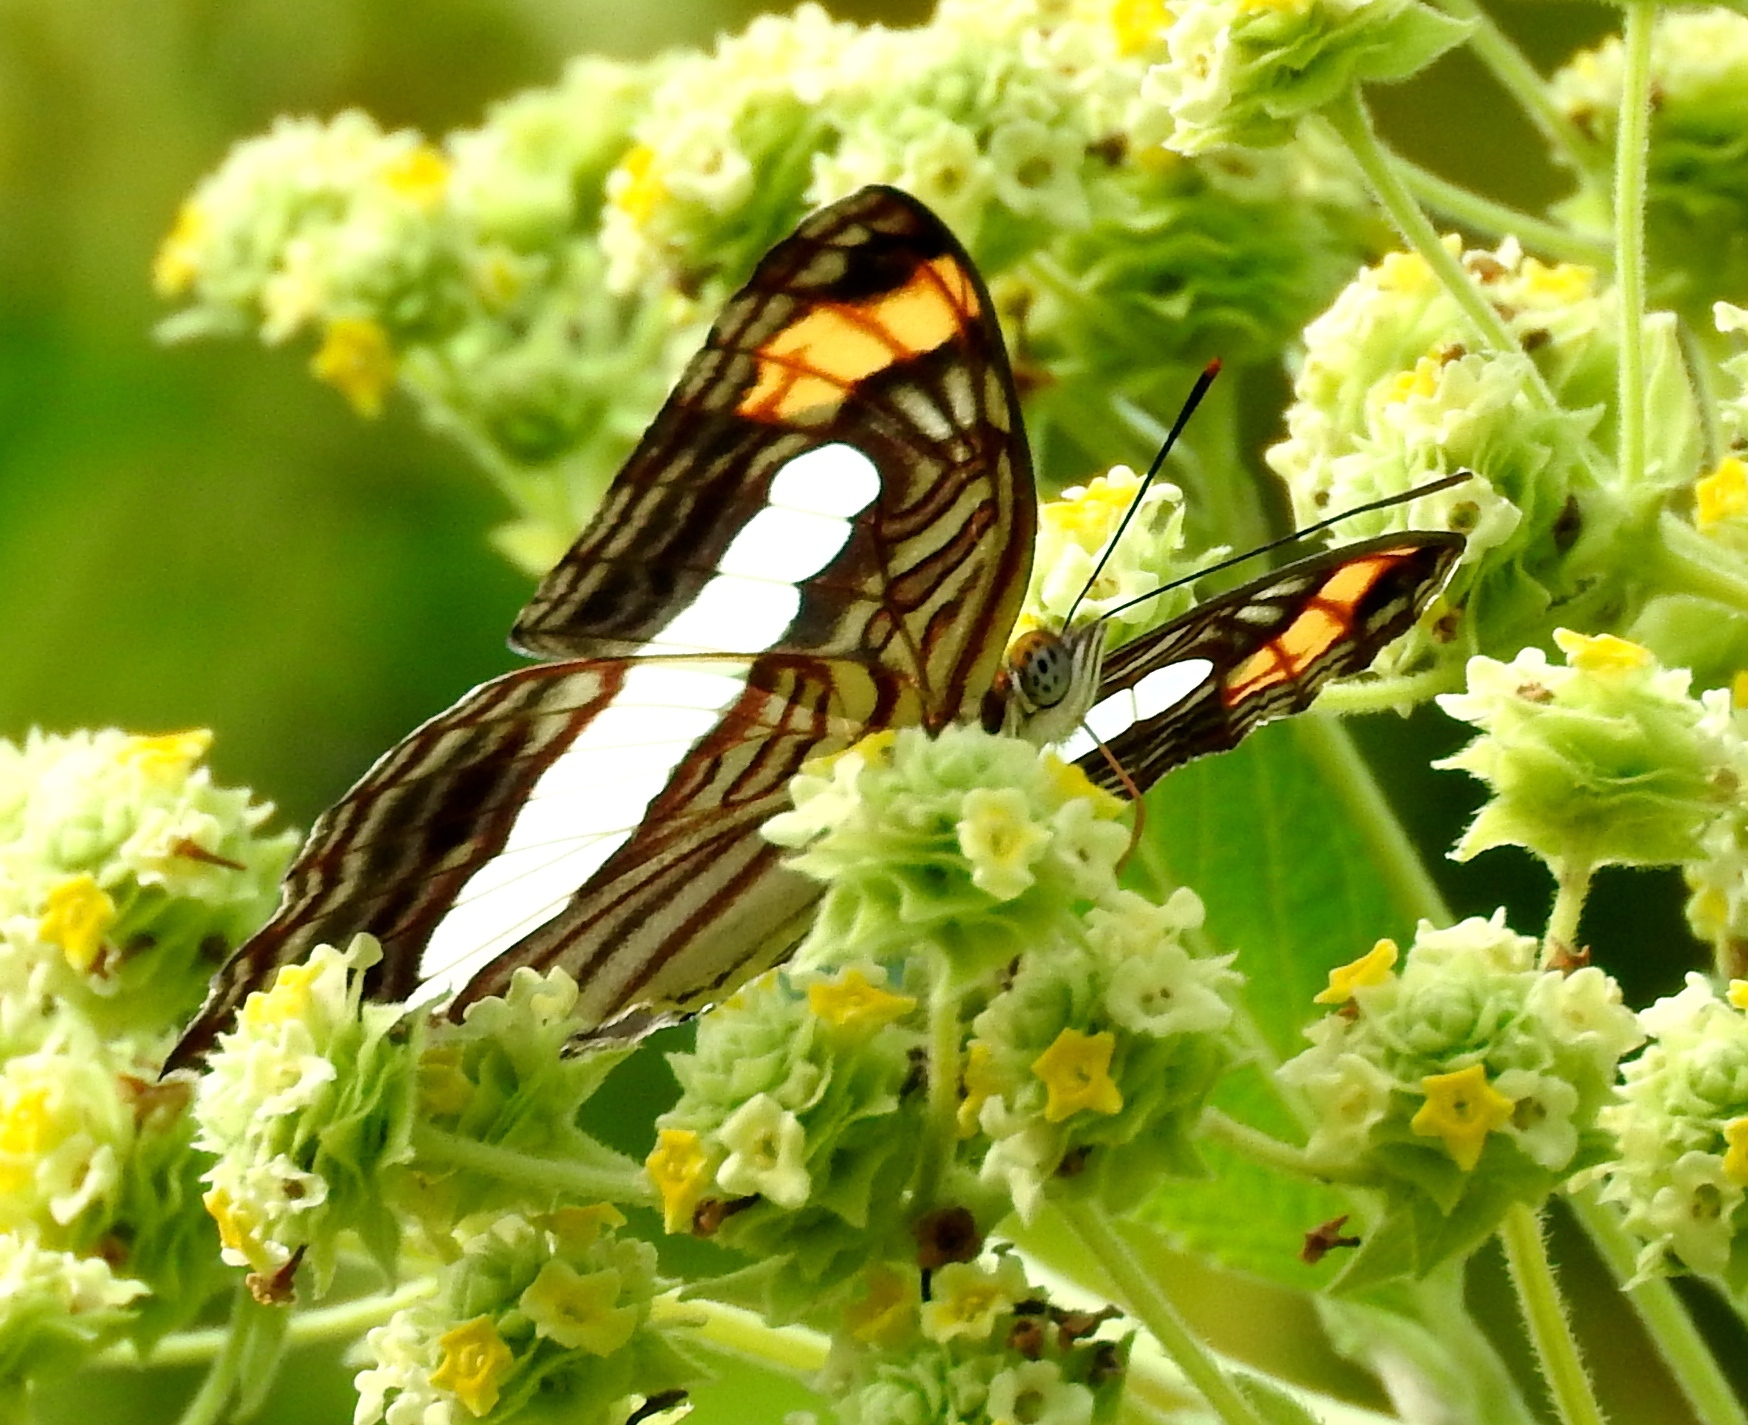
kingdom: Animalia
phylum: Arthropoda
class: Insecta
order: Lepidoptera
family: Nymphalidae
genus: Limenitis
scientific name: Limenitis iphiclus
